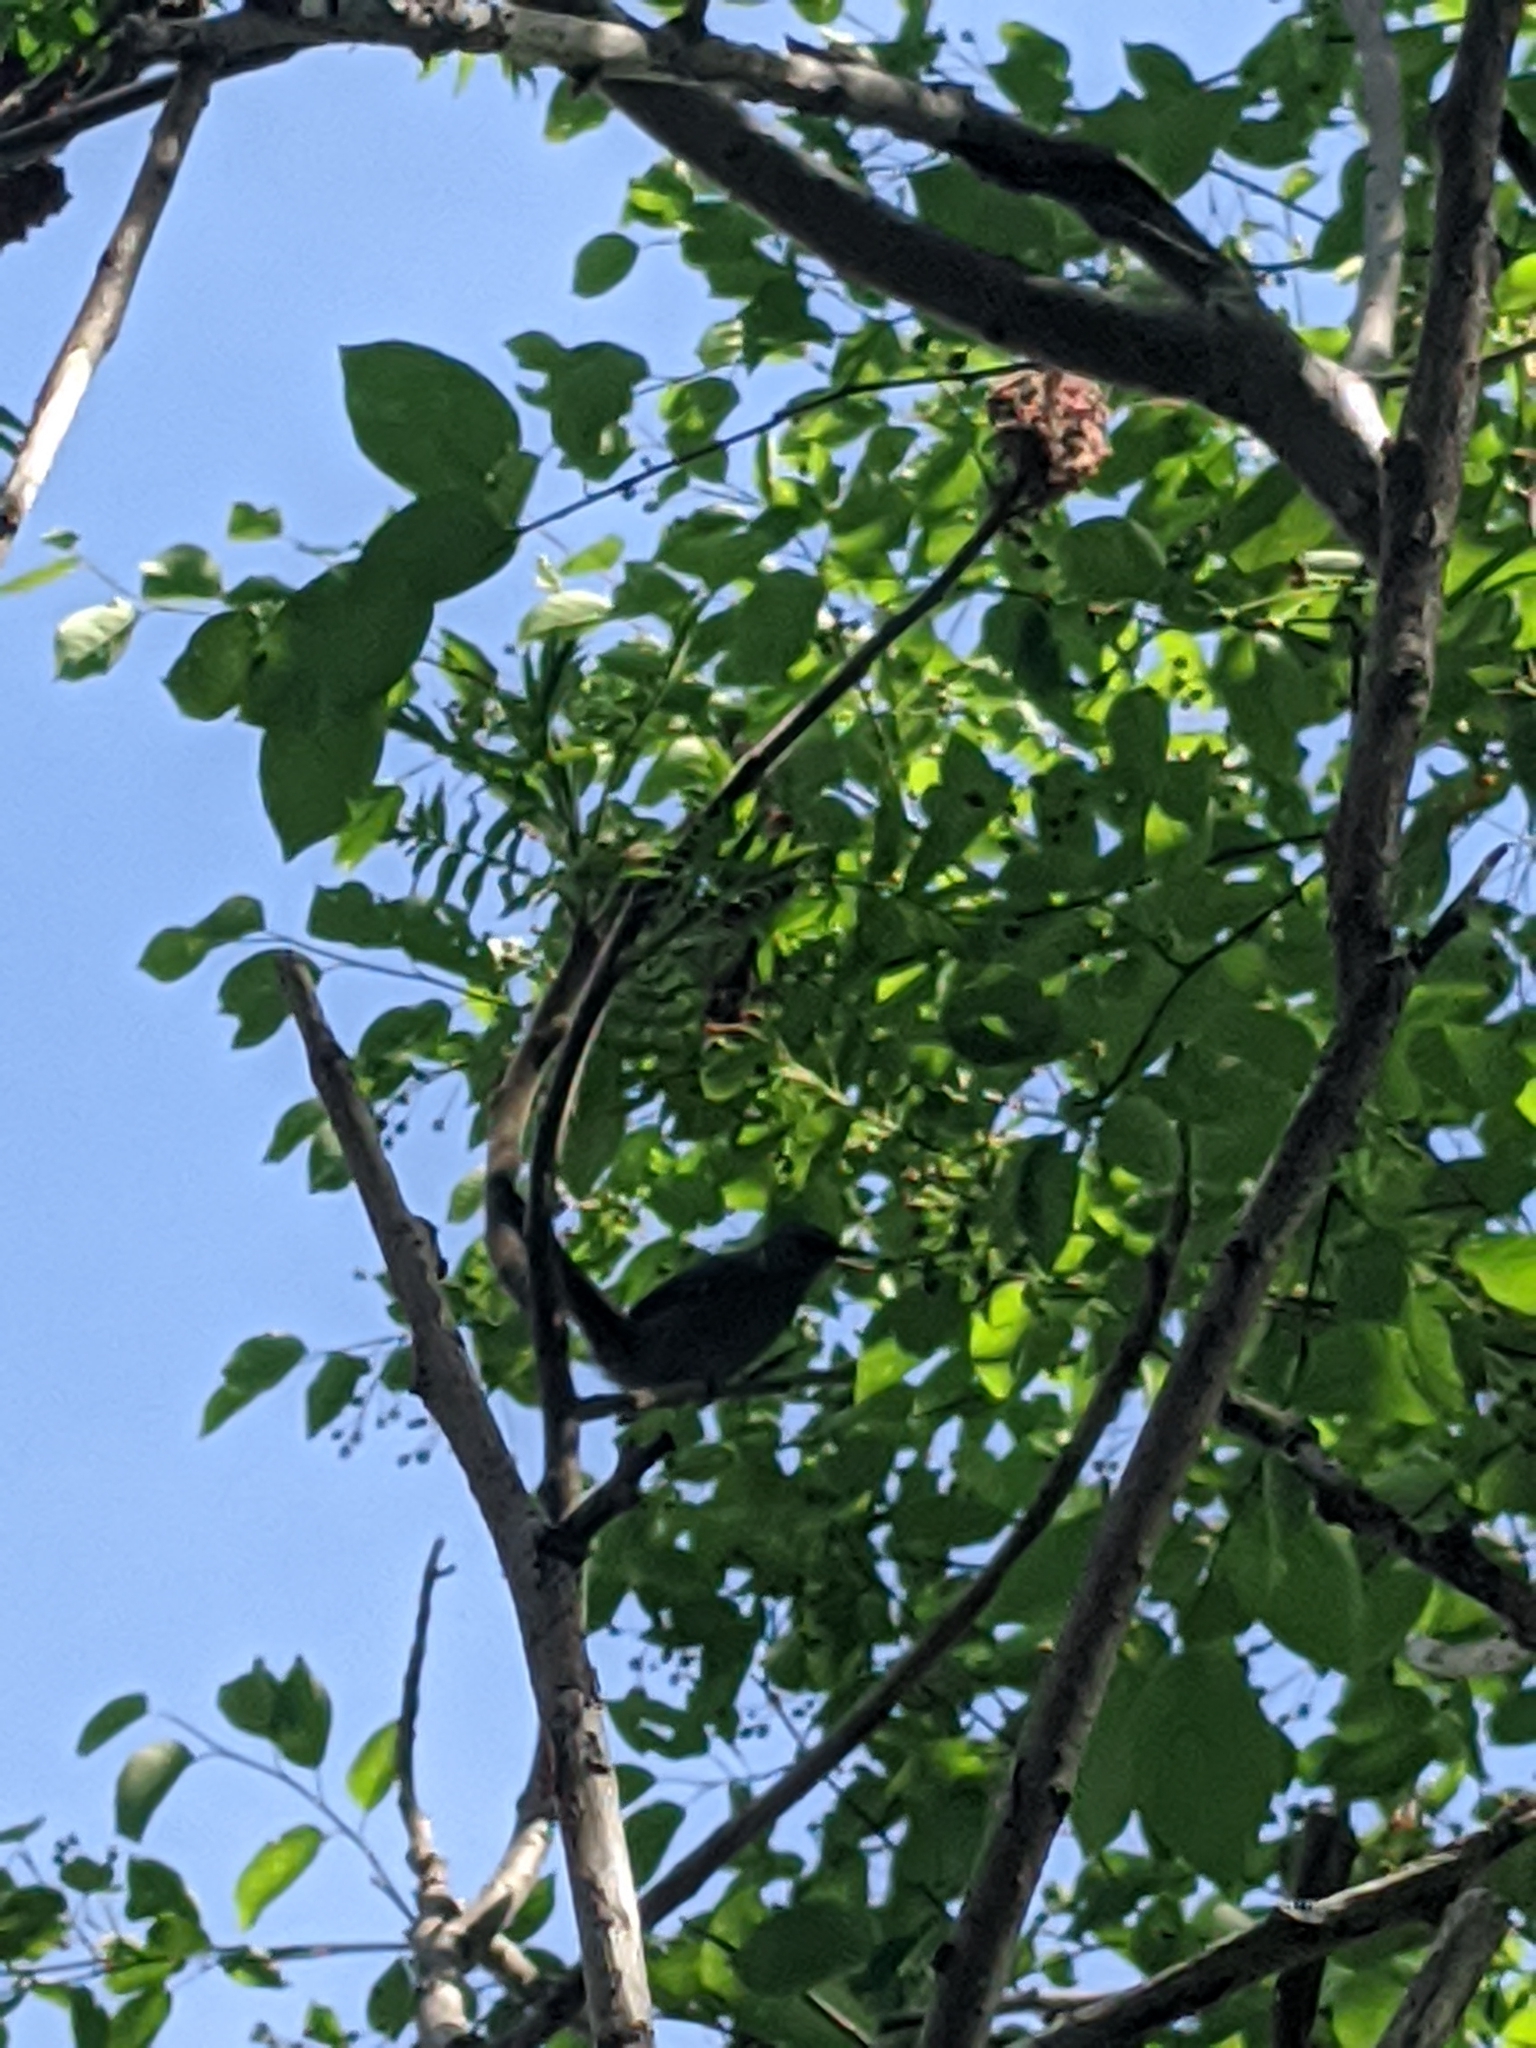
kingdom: Animalia
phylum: Chordata
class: Aves
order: Passeriformes
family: Mimidae
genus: Dumetella
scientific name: Dumetella carolinensis
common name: Gray catbird
